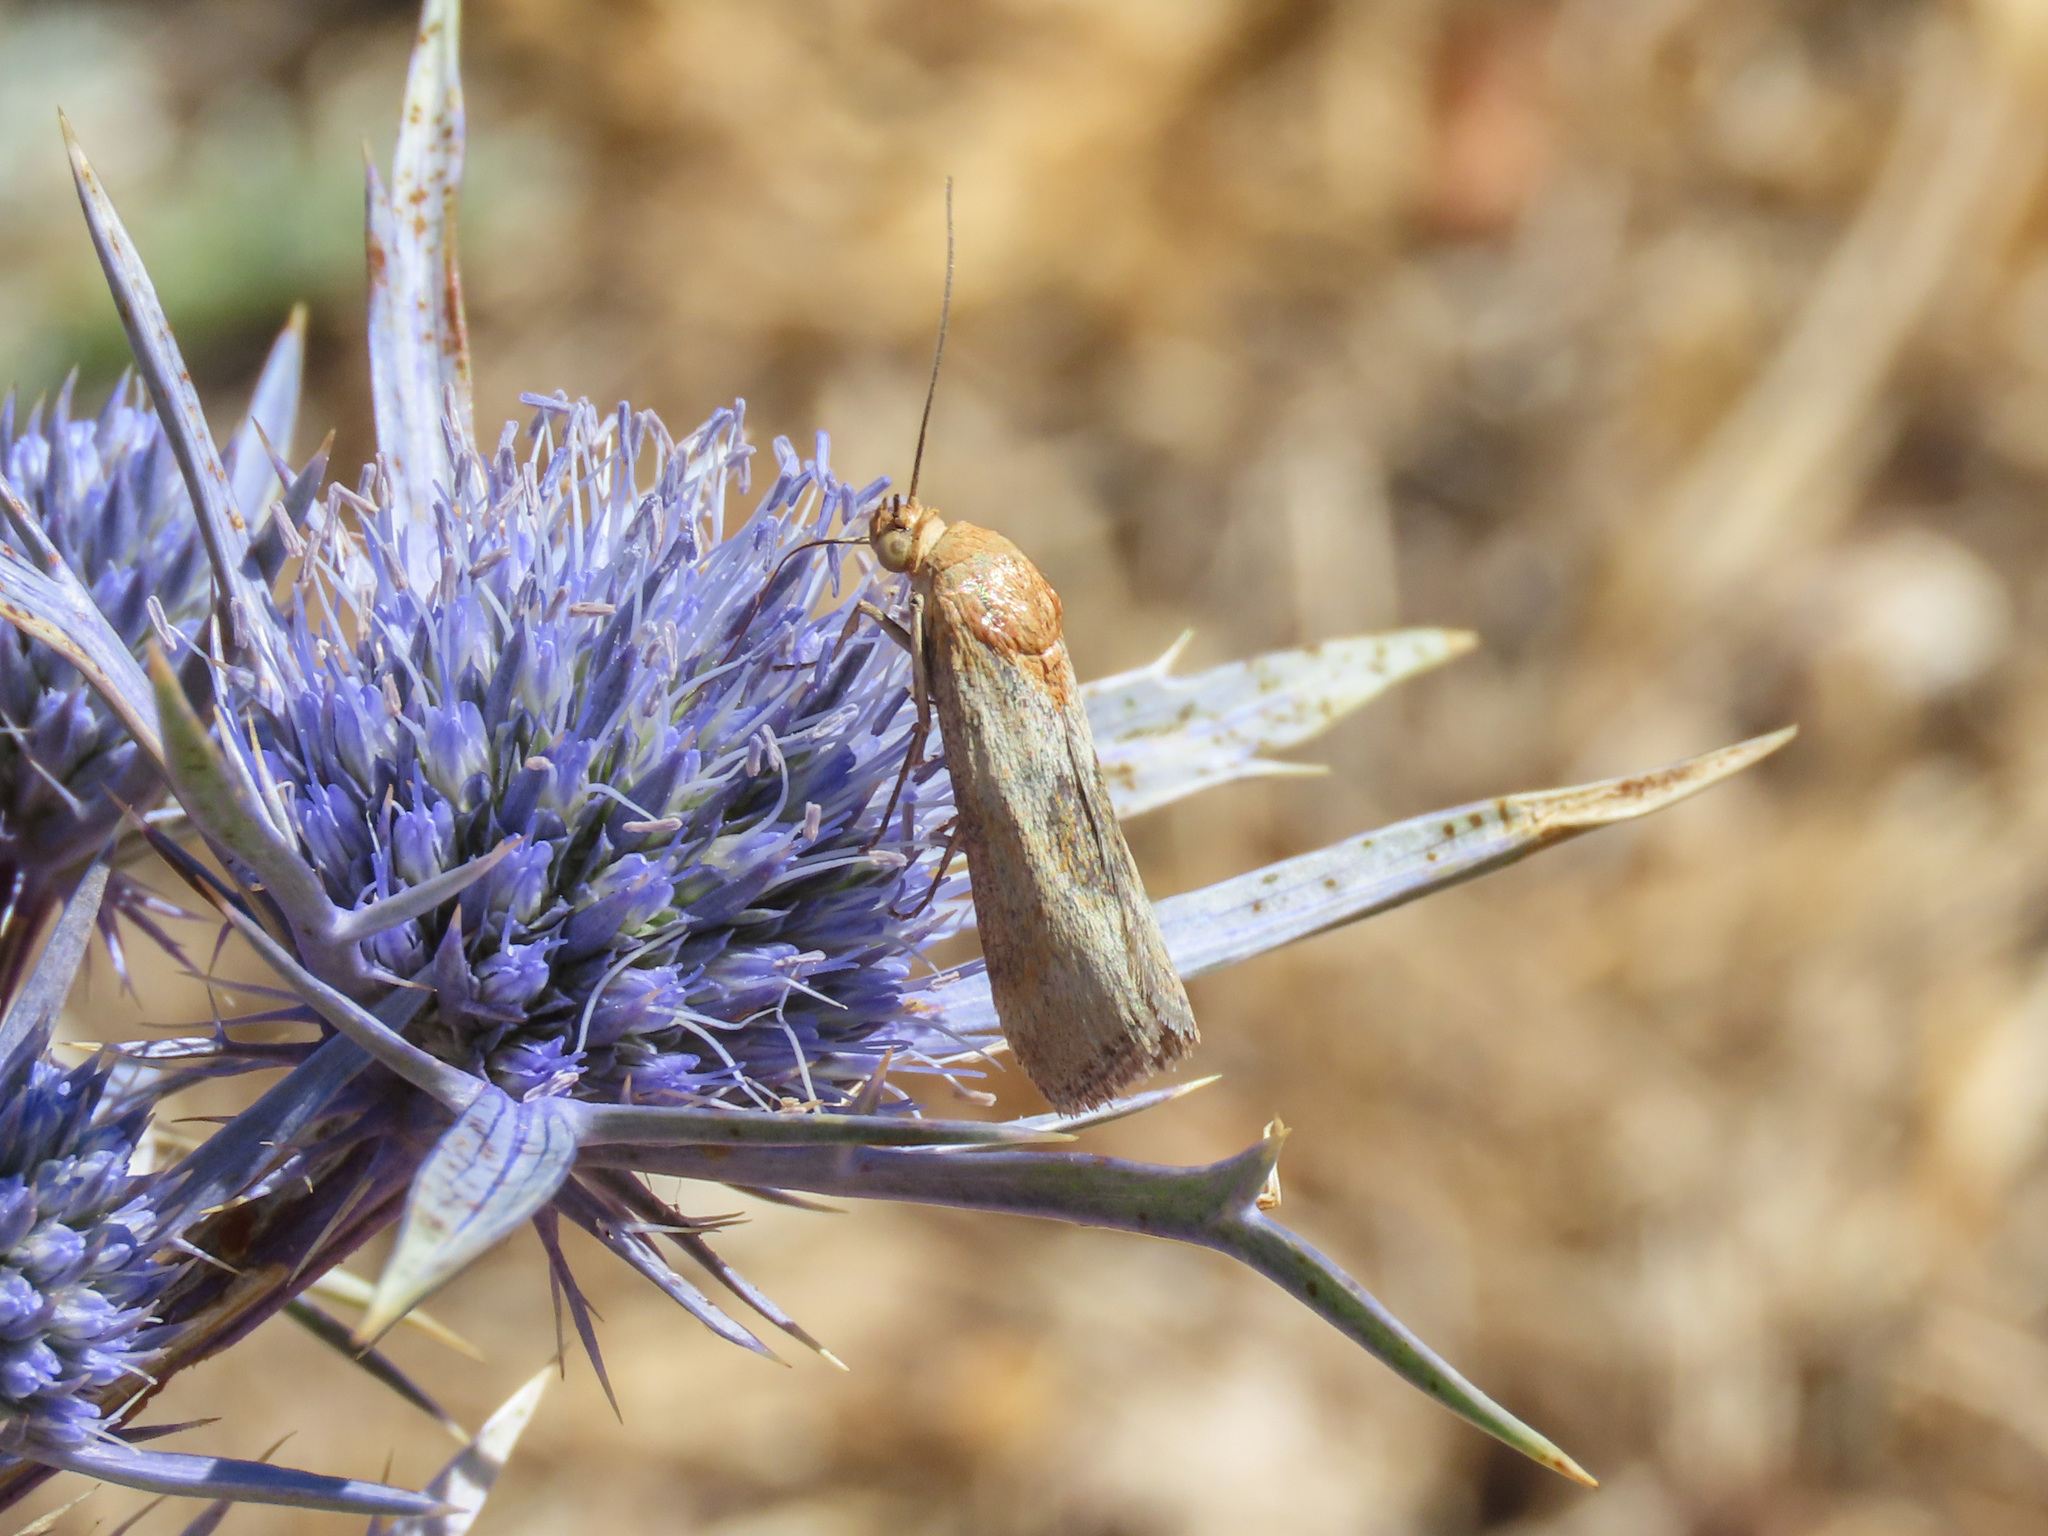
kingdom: Animalia
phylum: Arthropoda
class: Insecta
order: Lepidoptera
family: Pyralidae
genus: Pterothrixidia
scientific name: Pterothrixidia rufella
